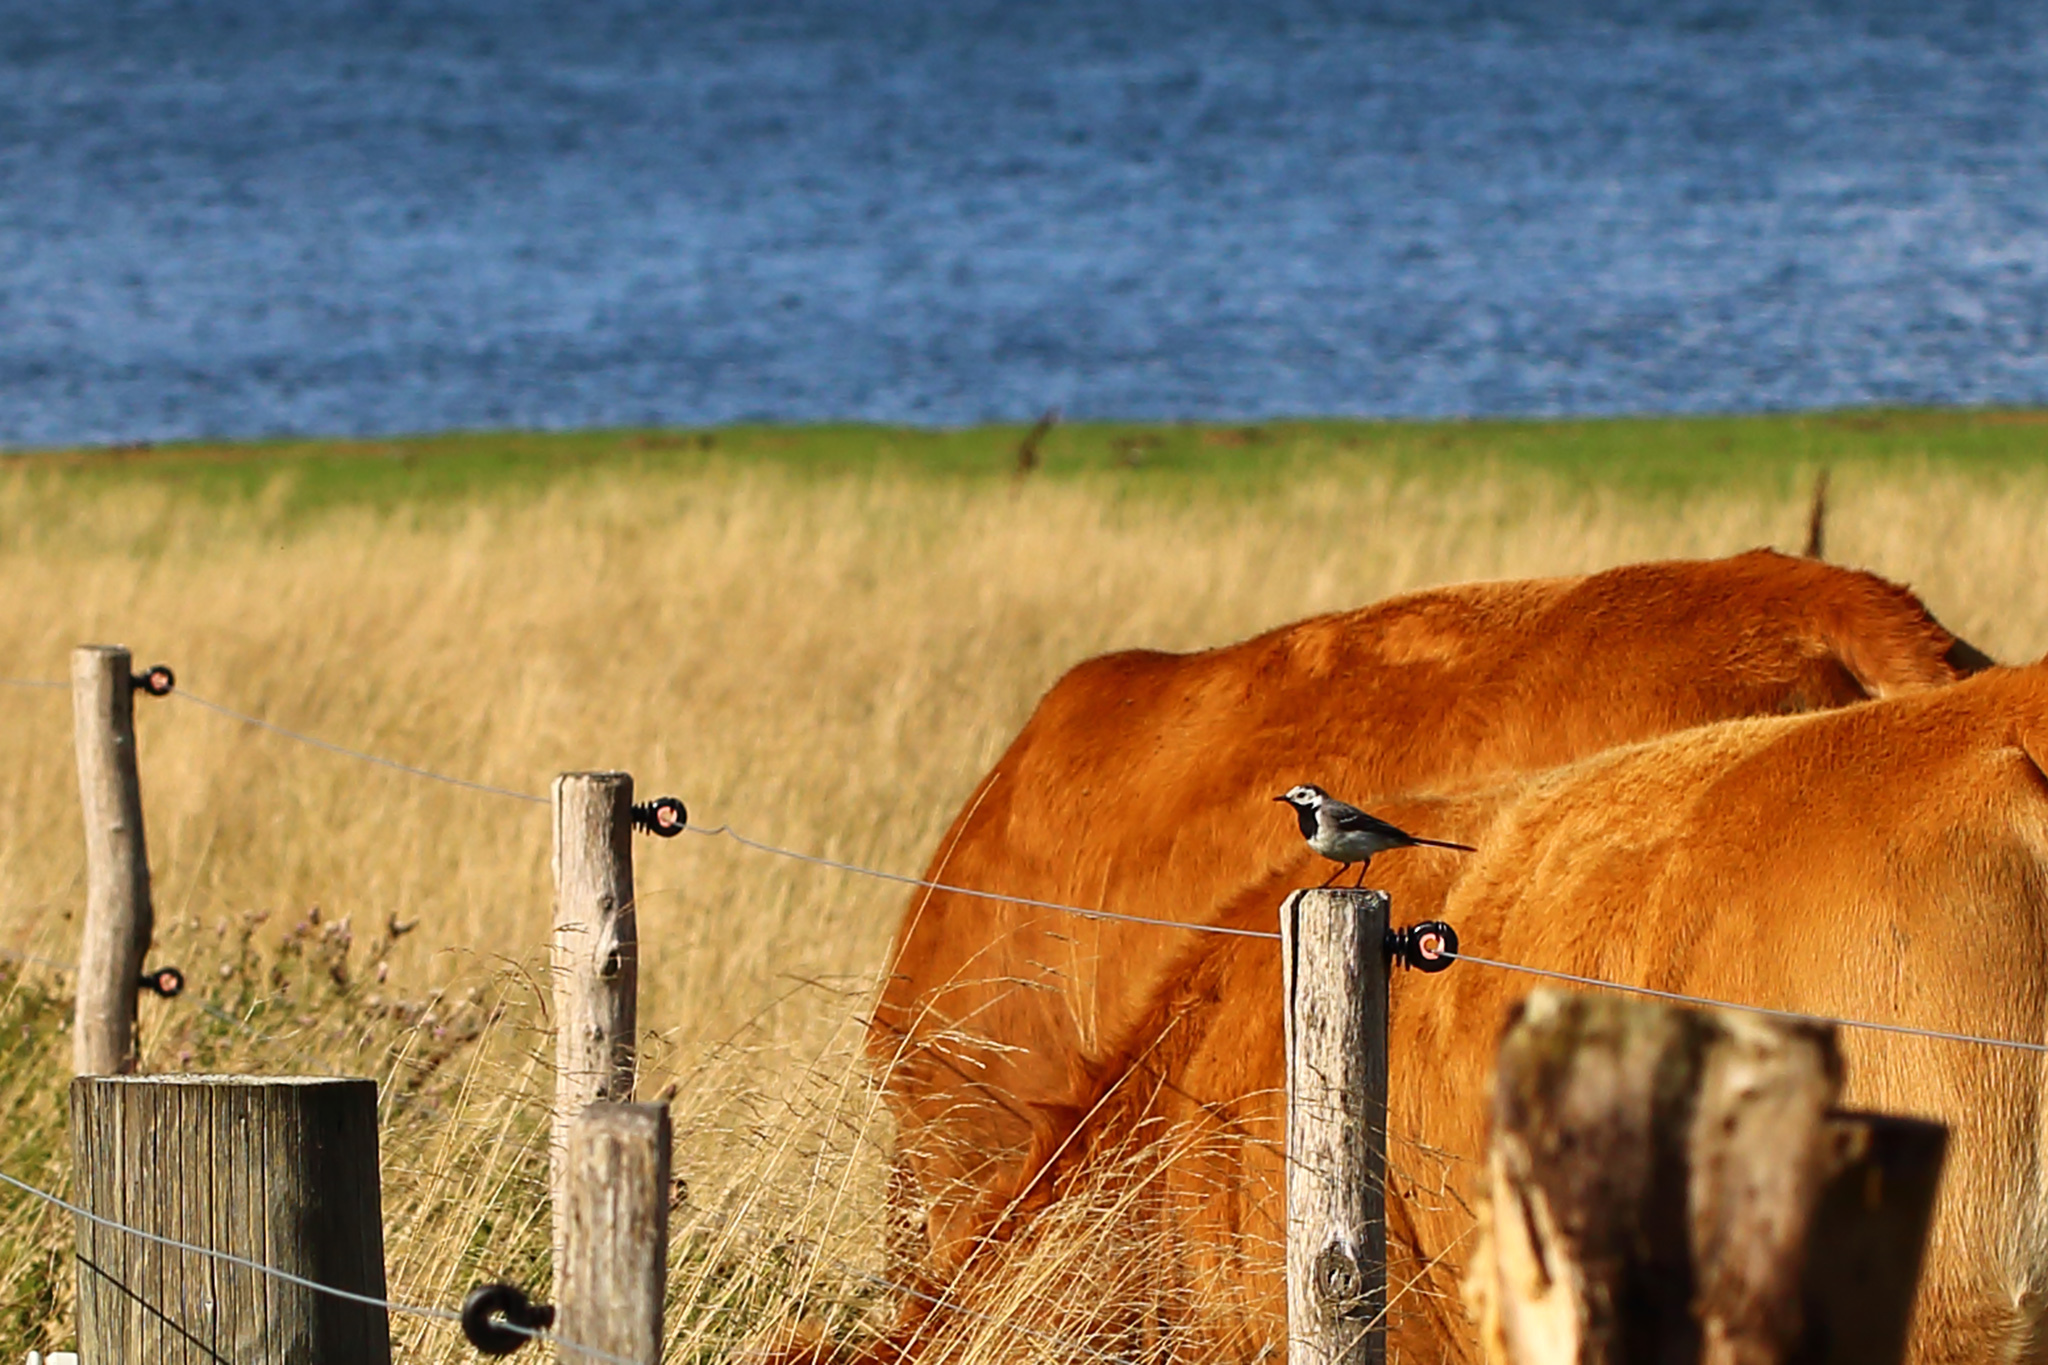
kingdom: Animalia
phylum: Chordata
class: Aves
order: Passeriformes
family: Motacillidae
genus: Motacilla
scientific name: Motacilla alba
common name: White wagtail
